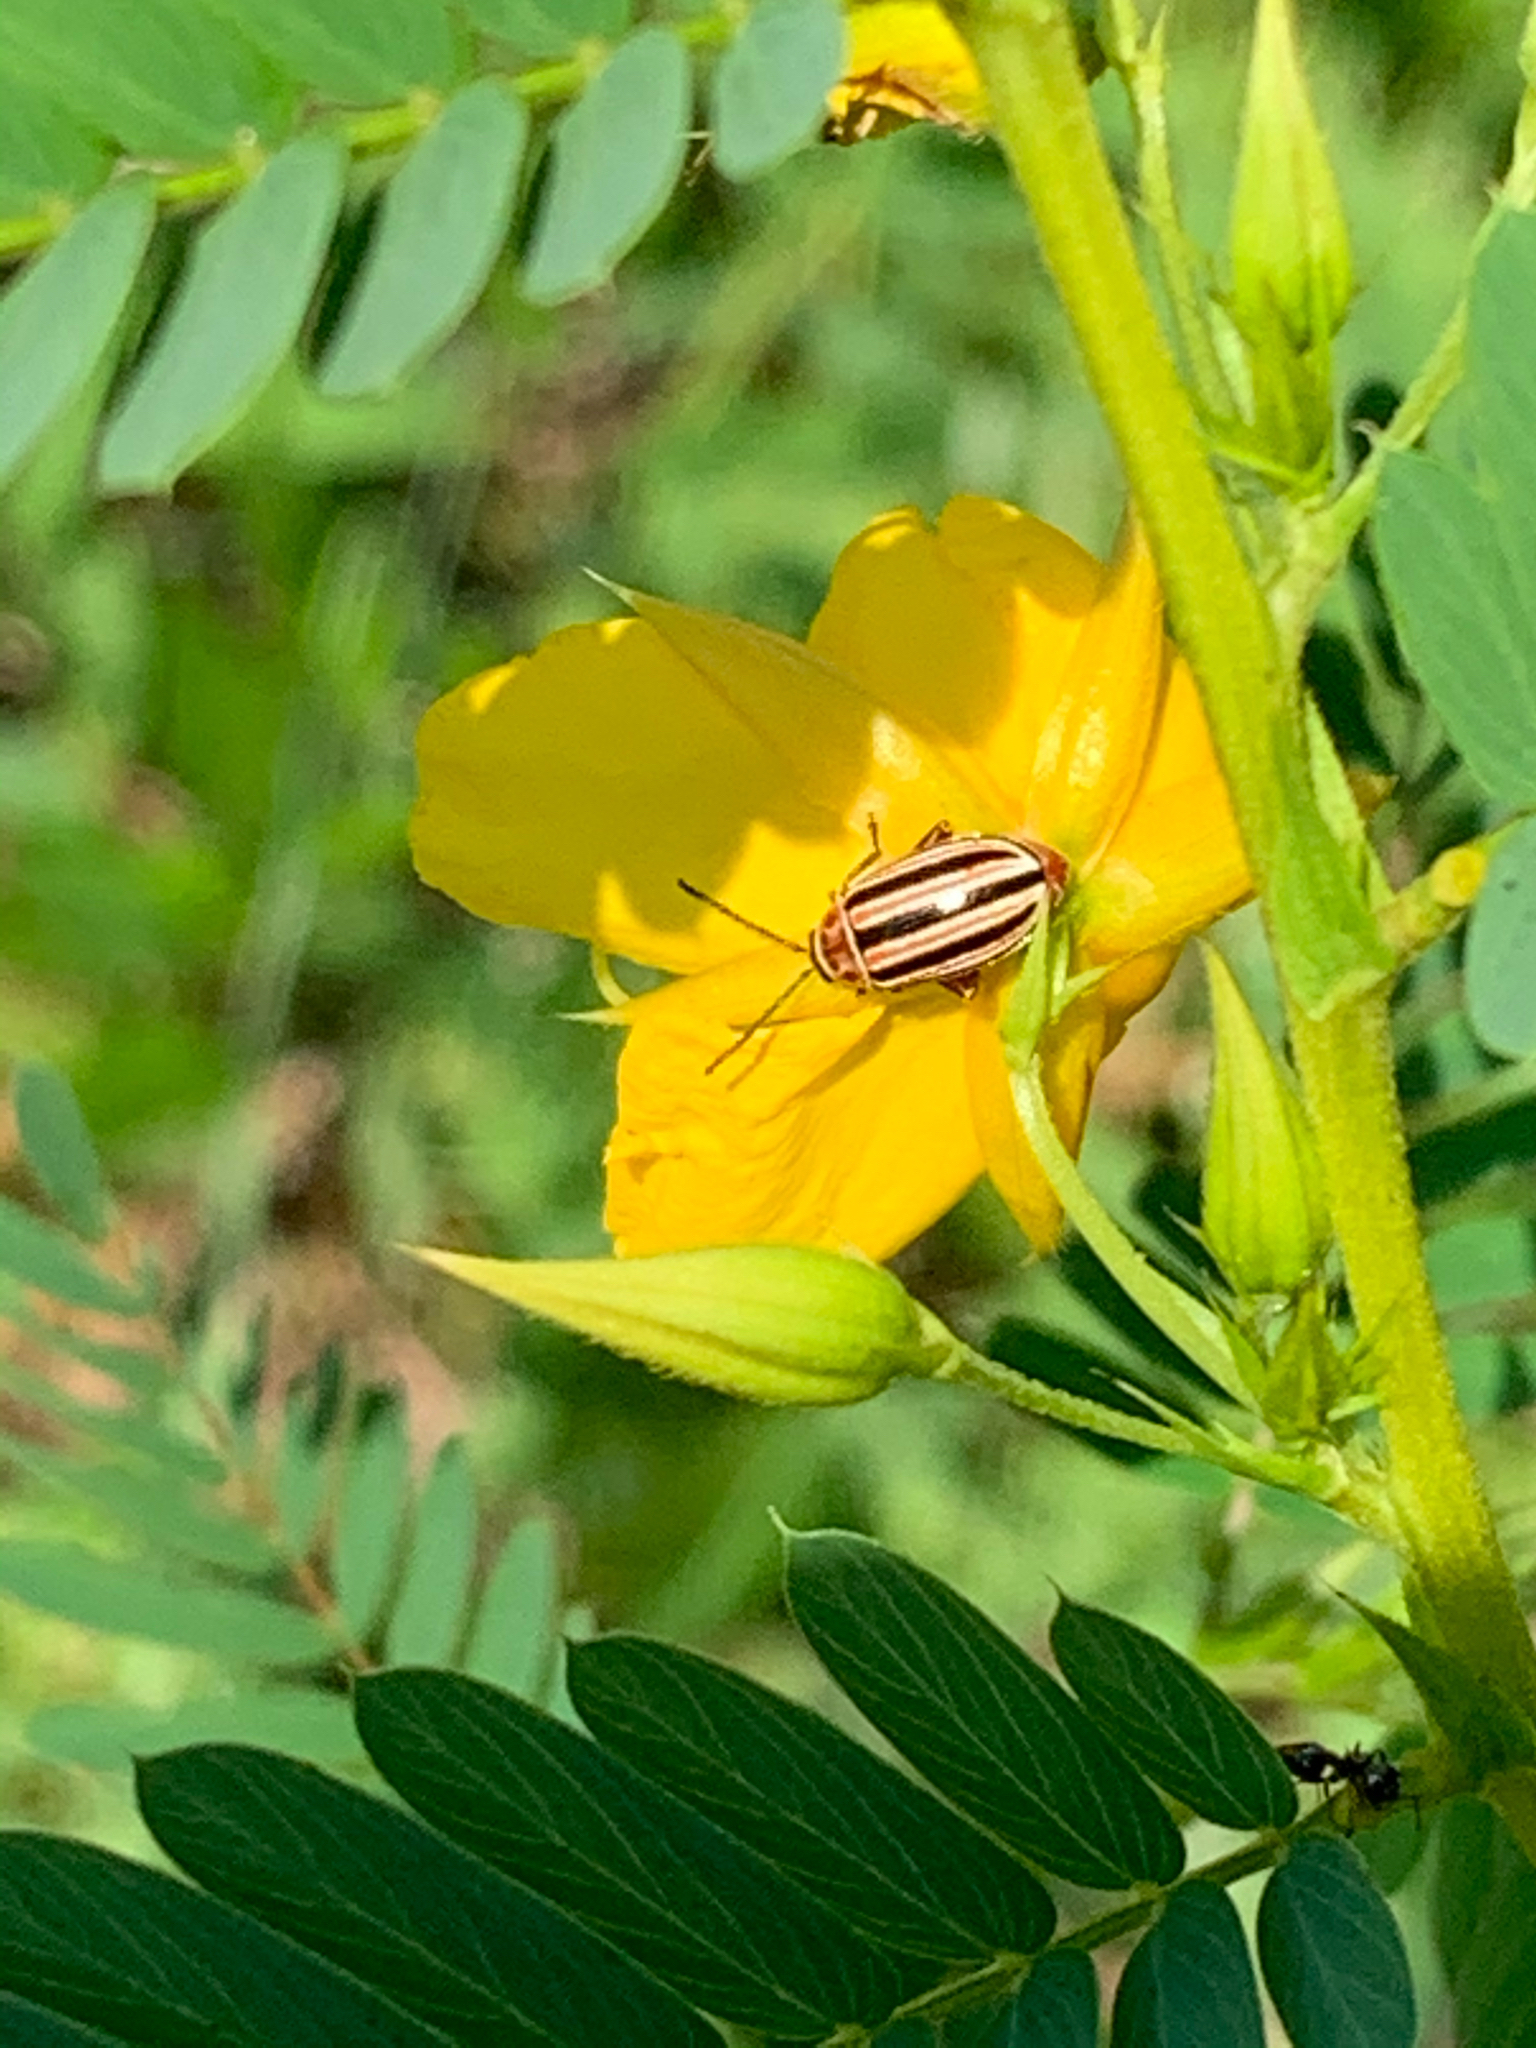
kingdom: Animalia
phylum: Arthropoda
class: Insecta
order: Coleoptera
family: Chrysomelidae
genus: Disonycha
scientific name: Disonycha admirabila
